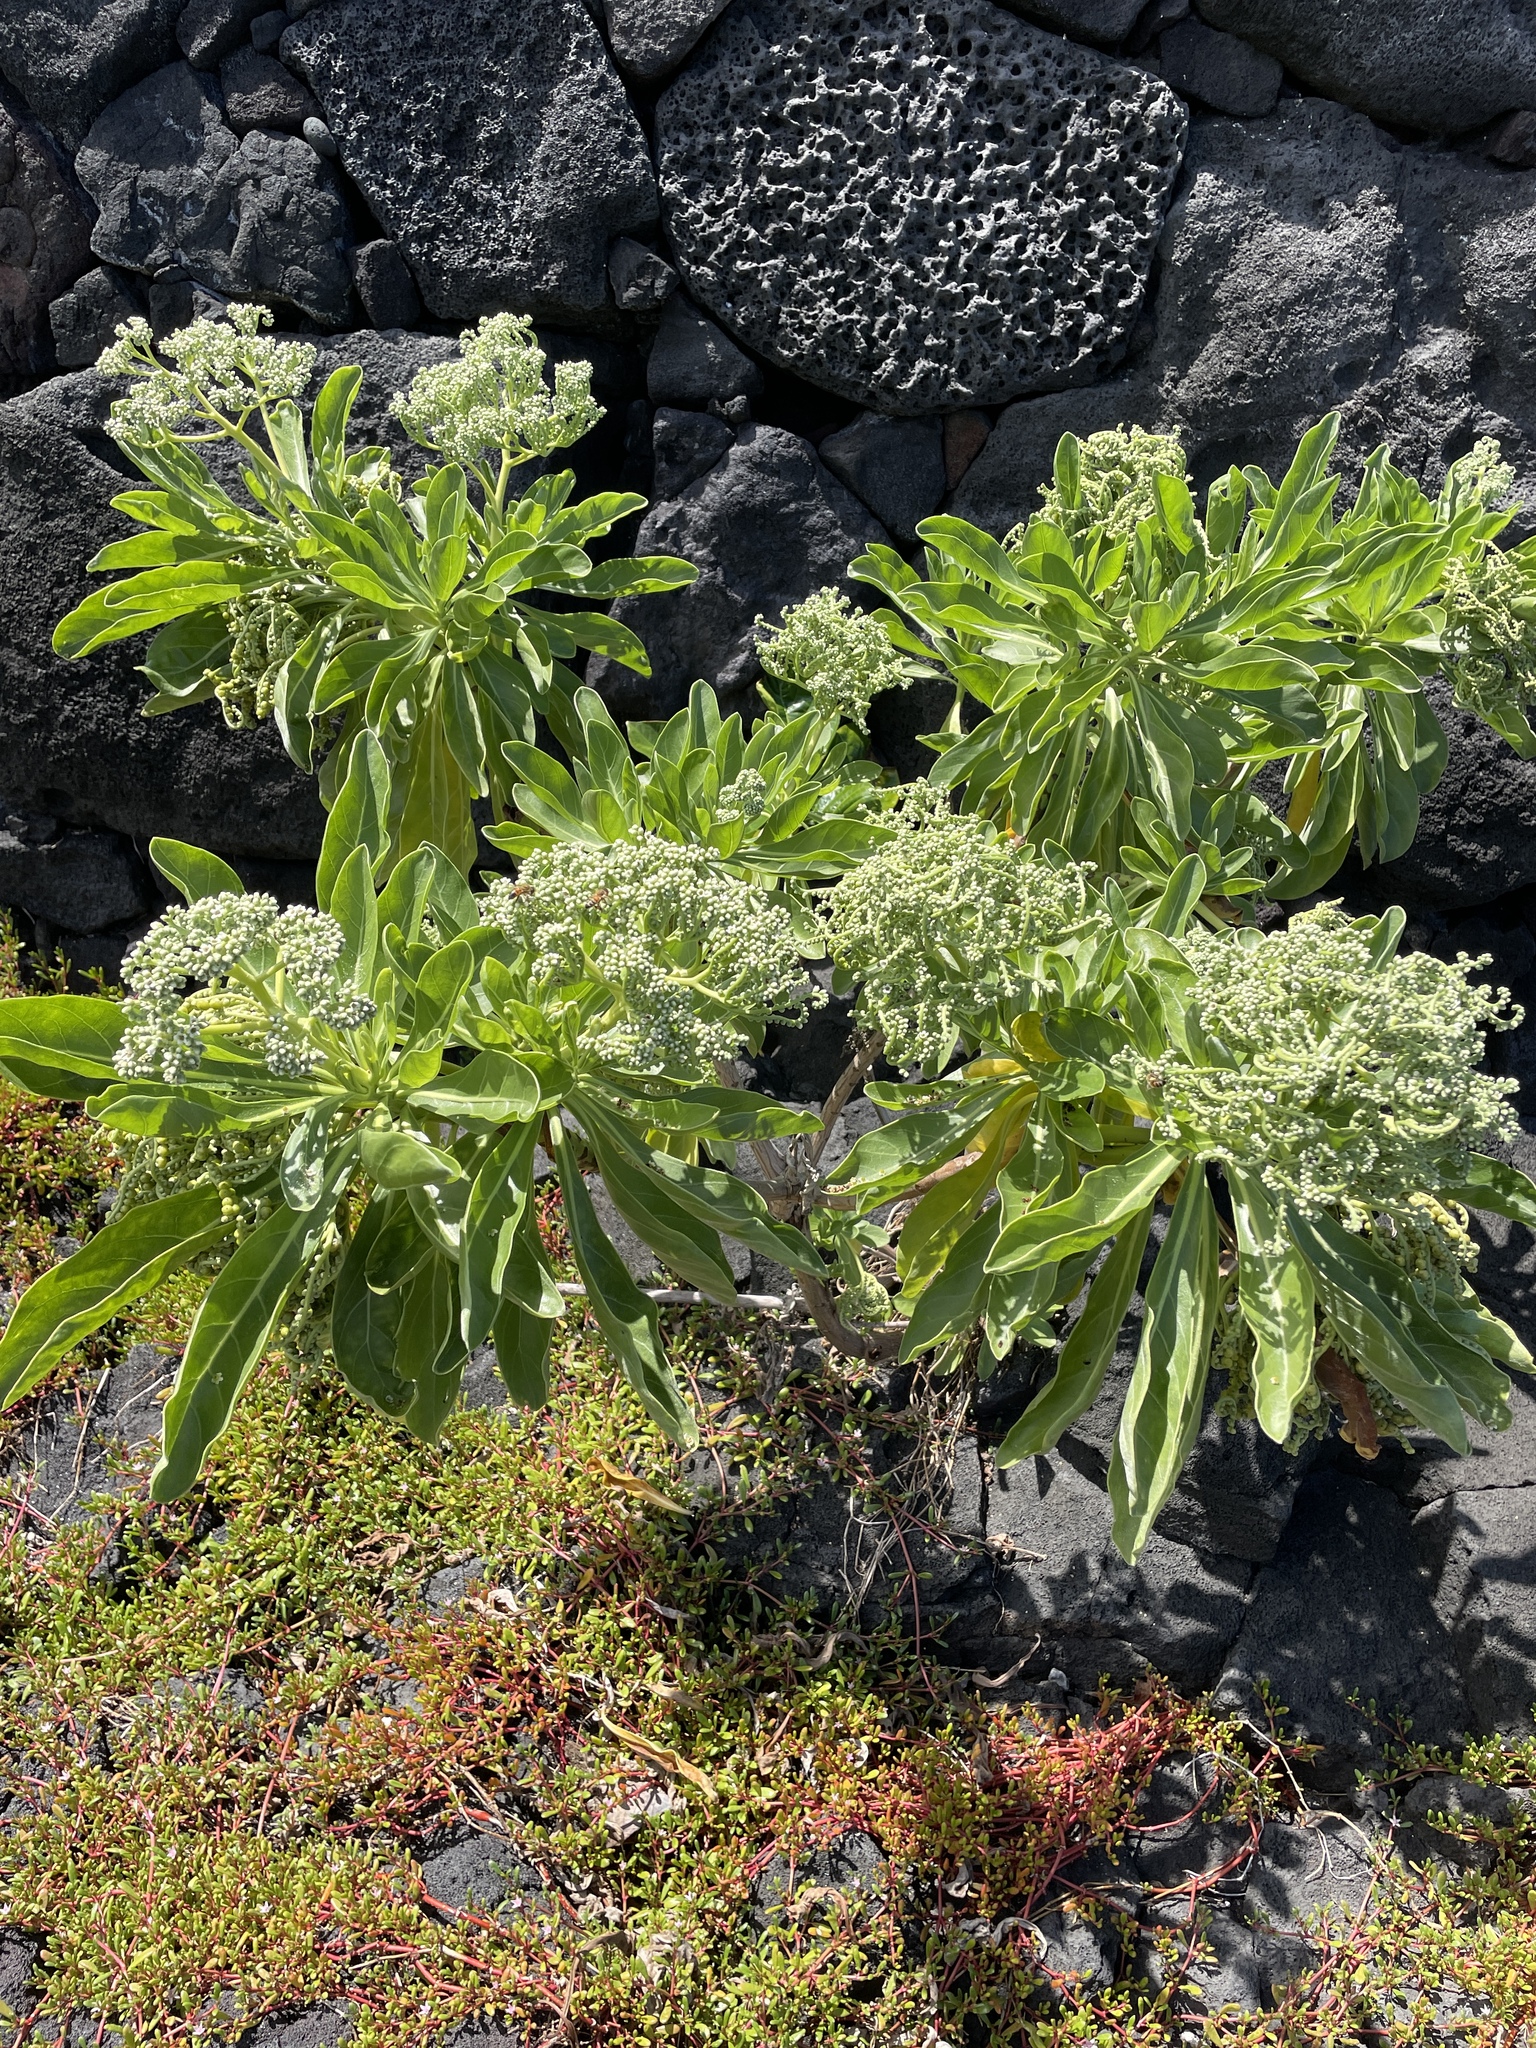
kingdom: Plantae
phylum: Tracheophyta
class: Magnoliopsida
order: Boraginales
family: Heliotropiaceae
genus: Heliotropium
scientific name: Heliotropium velutinum
